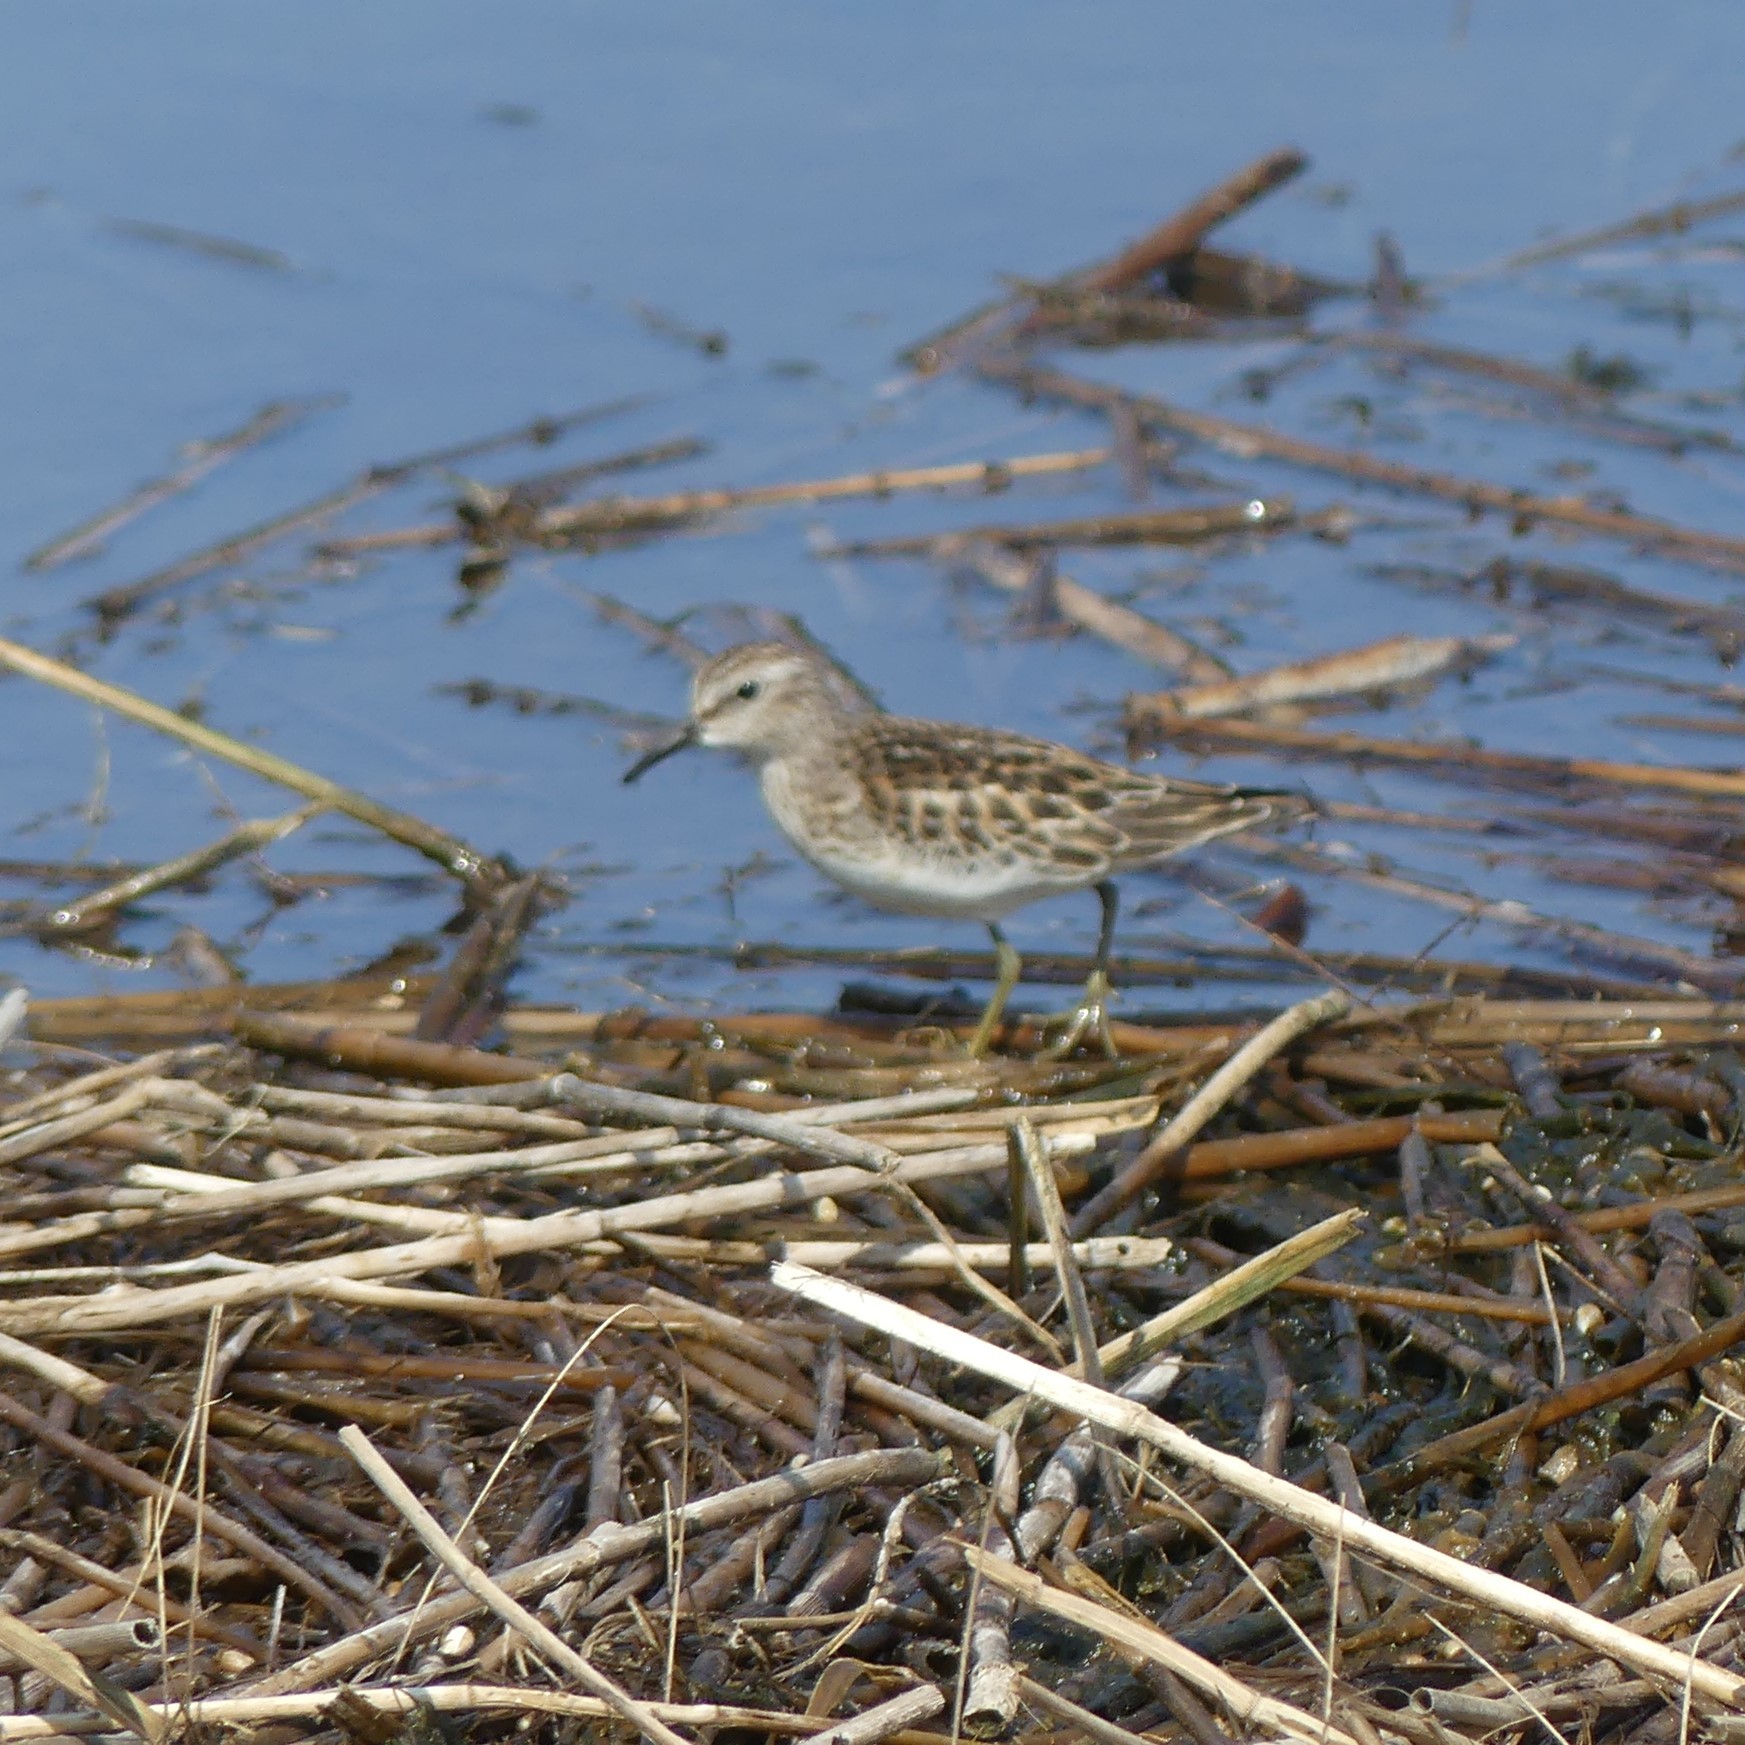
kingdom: Animalia
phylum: Chordata
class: Aves
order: Charadriiformes
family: Scolopacidae
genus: Calidris
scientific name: Calidris minutilla
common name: Least sandpiper
